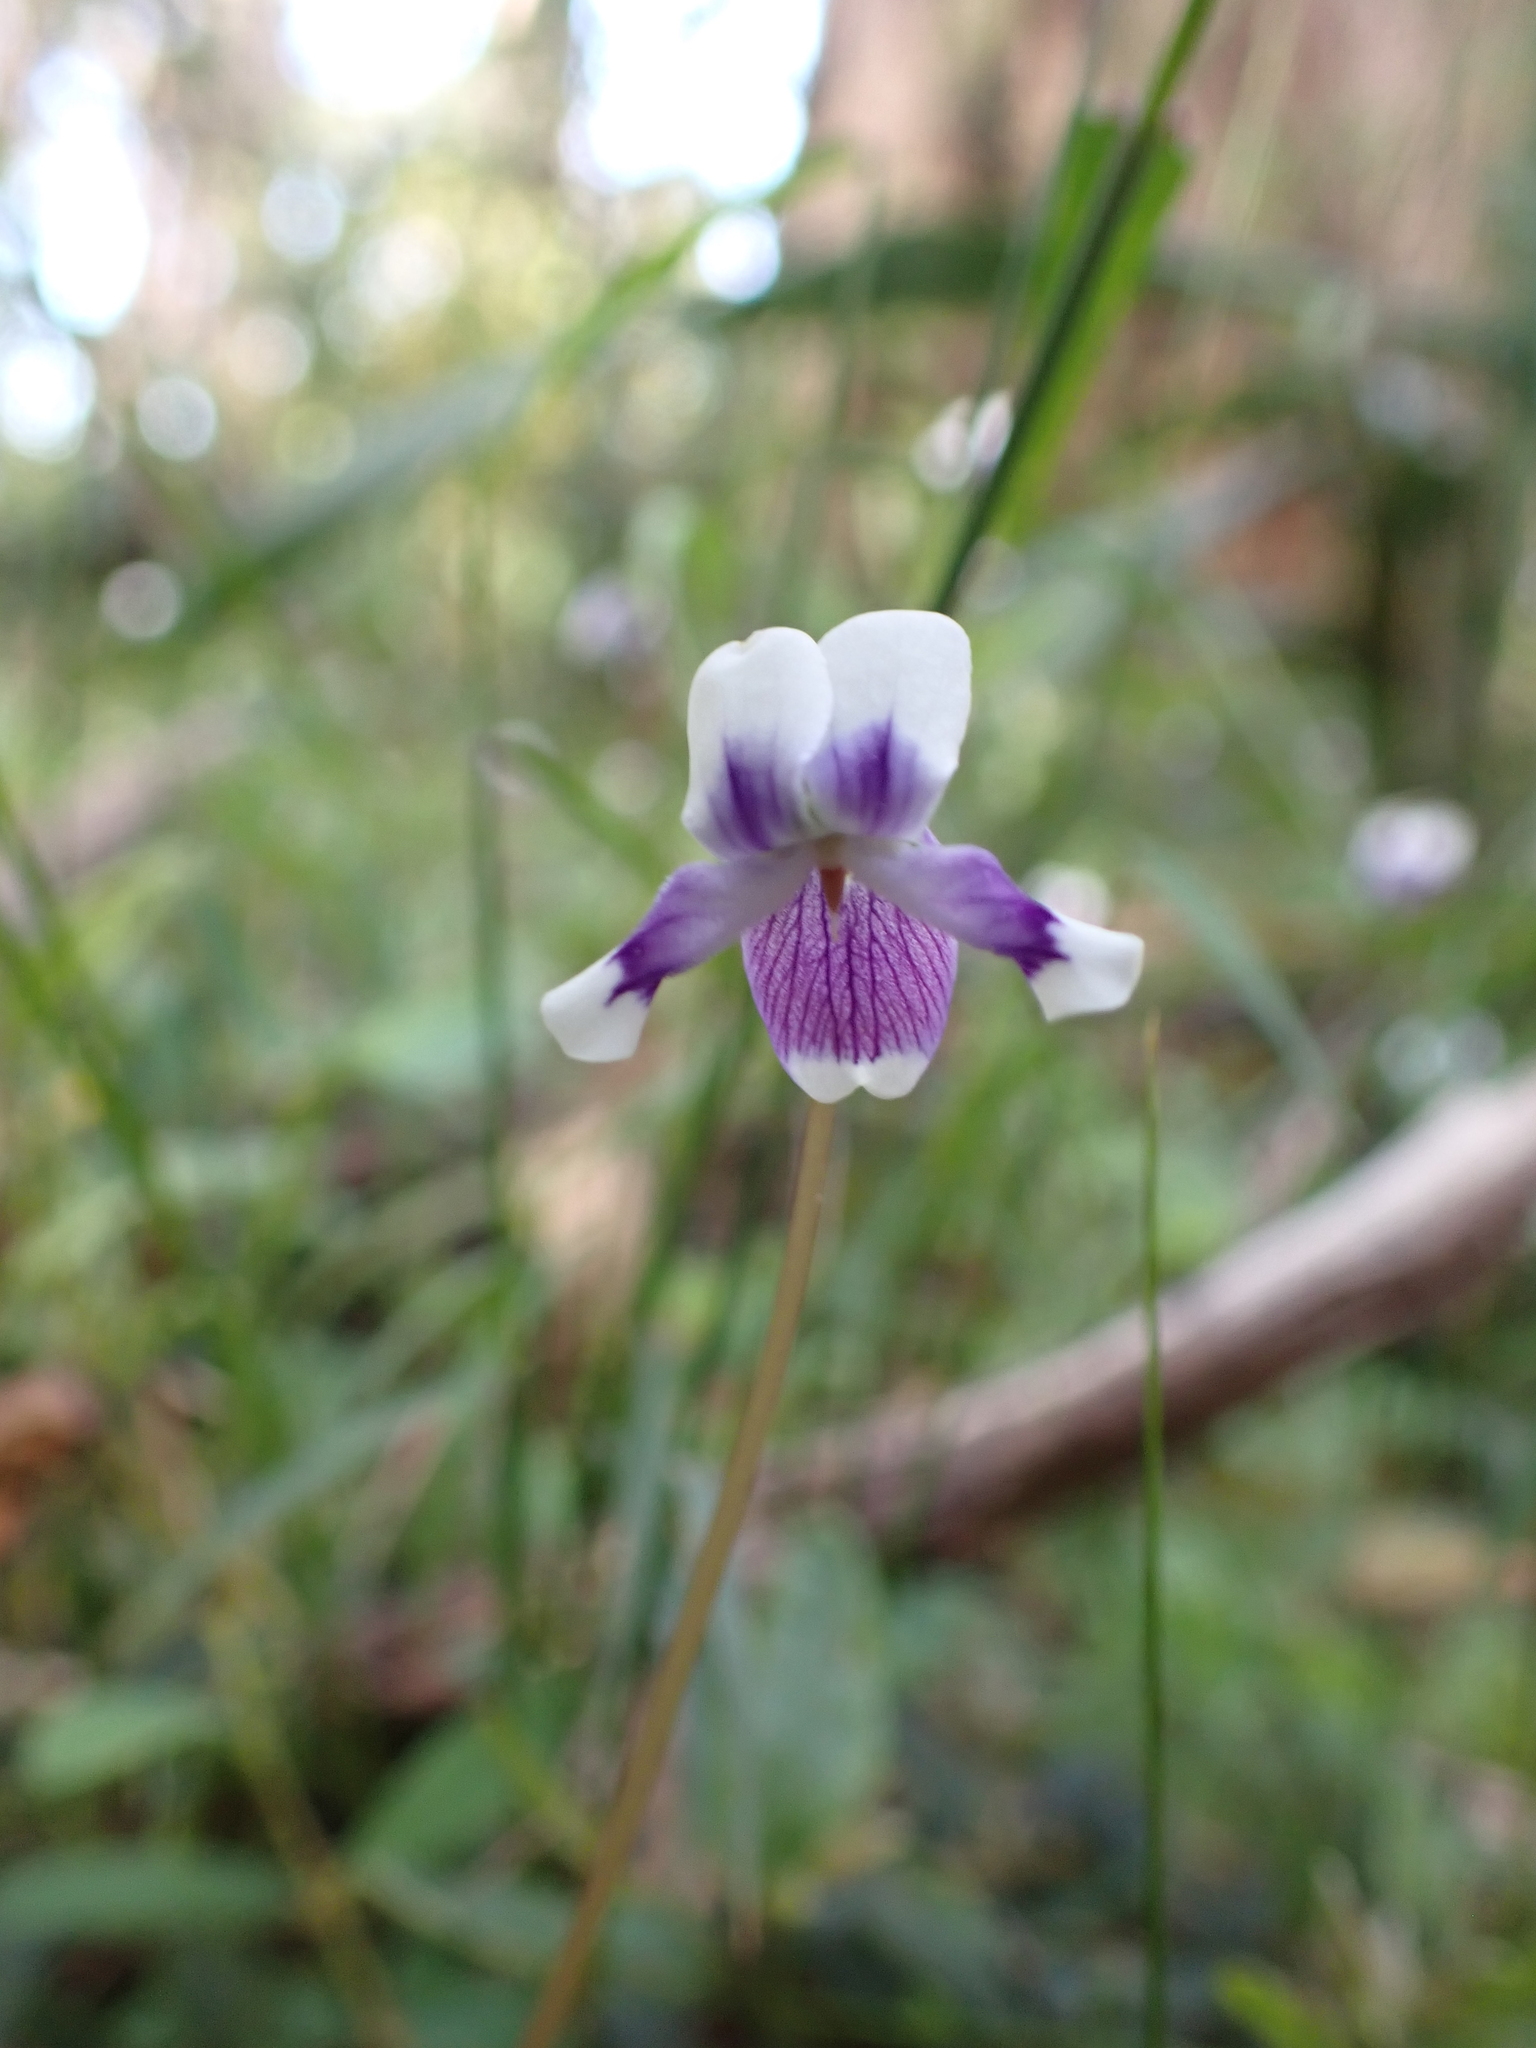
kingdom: Plantae
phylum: Tracheophyta
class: Magnoliopsida
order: Malpighiales
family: Violaceae
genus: Viola
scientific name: Viola eminens
